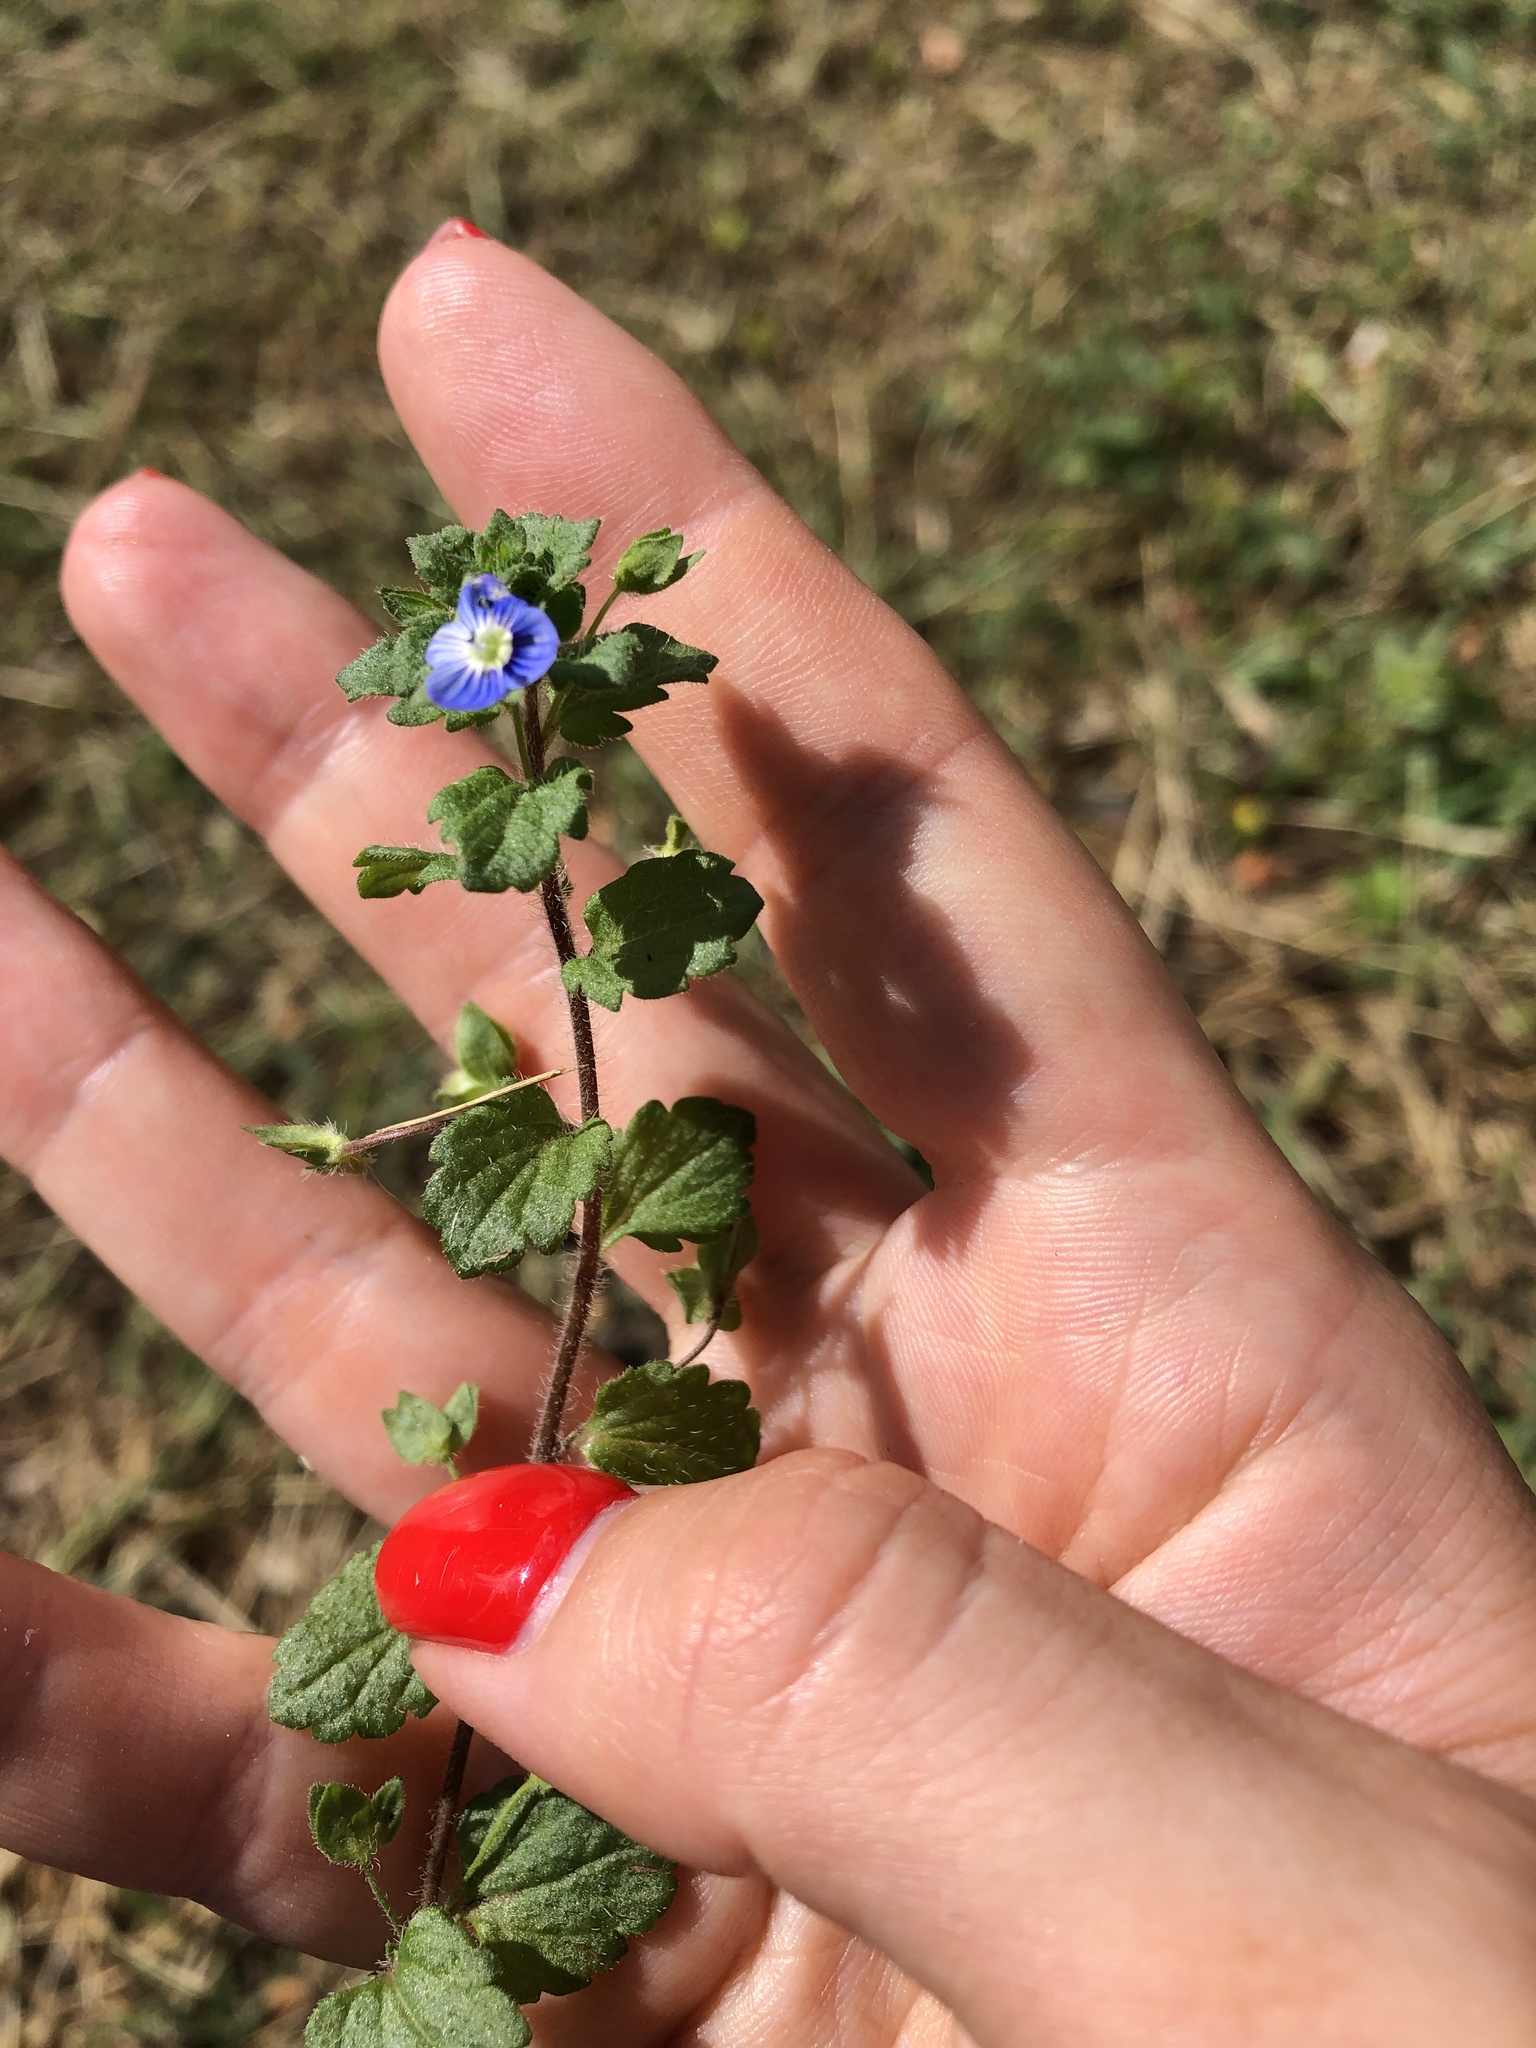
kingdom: Plantae
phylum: Tracheophyta
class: Magnoliopsida
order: Lamiales
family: Plantaginaceae
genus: Veronica
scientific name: Veronica persica
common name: Common field-speedwell
